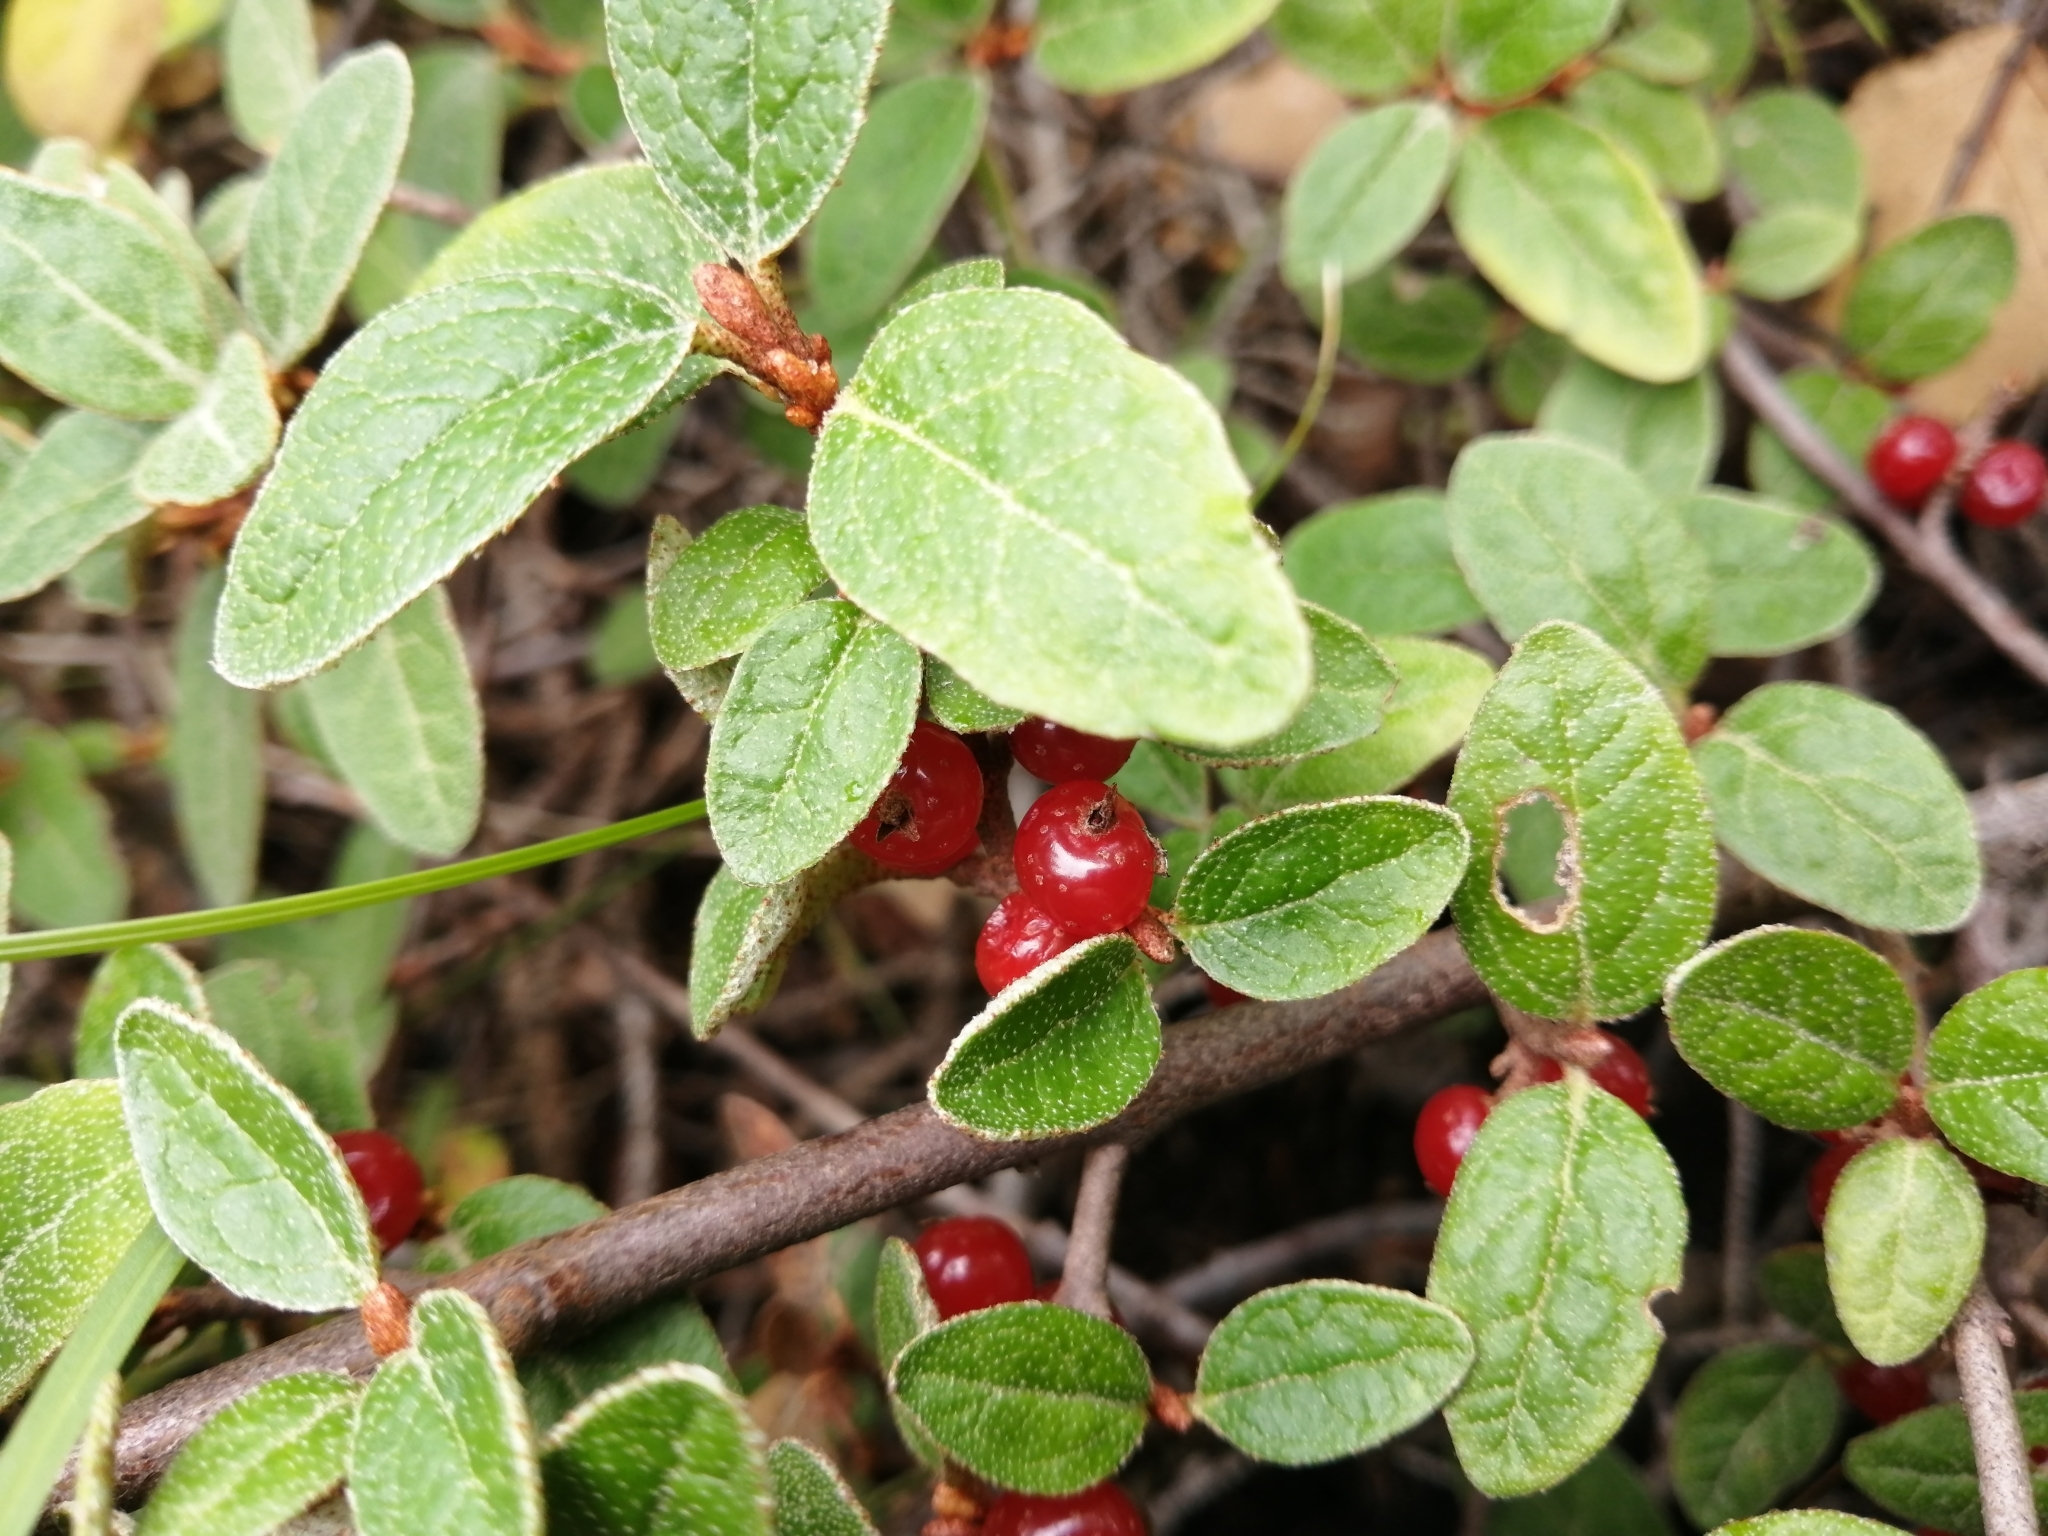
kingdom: Plantae
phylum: Tracheophyta
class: Magnoliopsida
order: Rosales
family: Elaeagnaceae
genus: Shepherdia
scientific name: Shepherdia canadensis
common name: Soapberry
